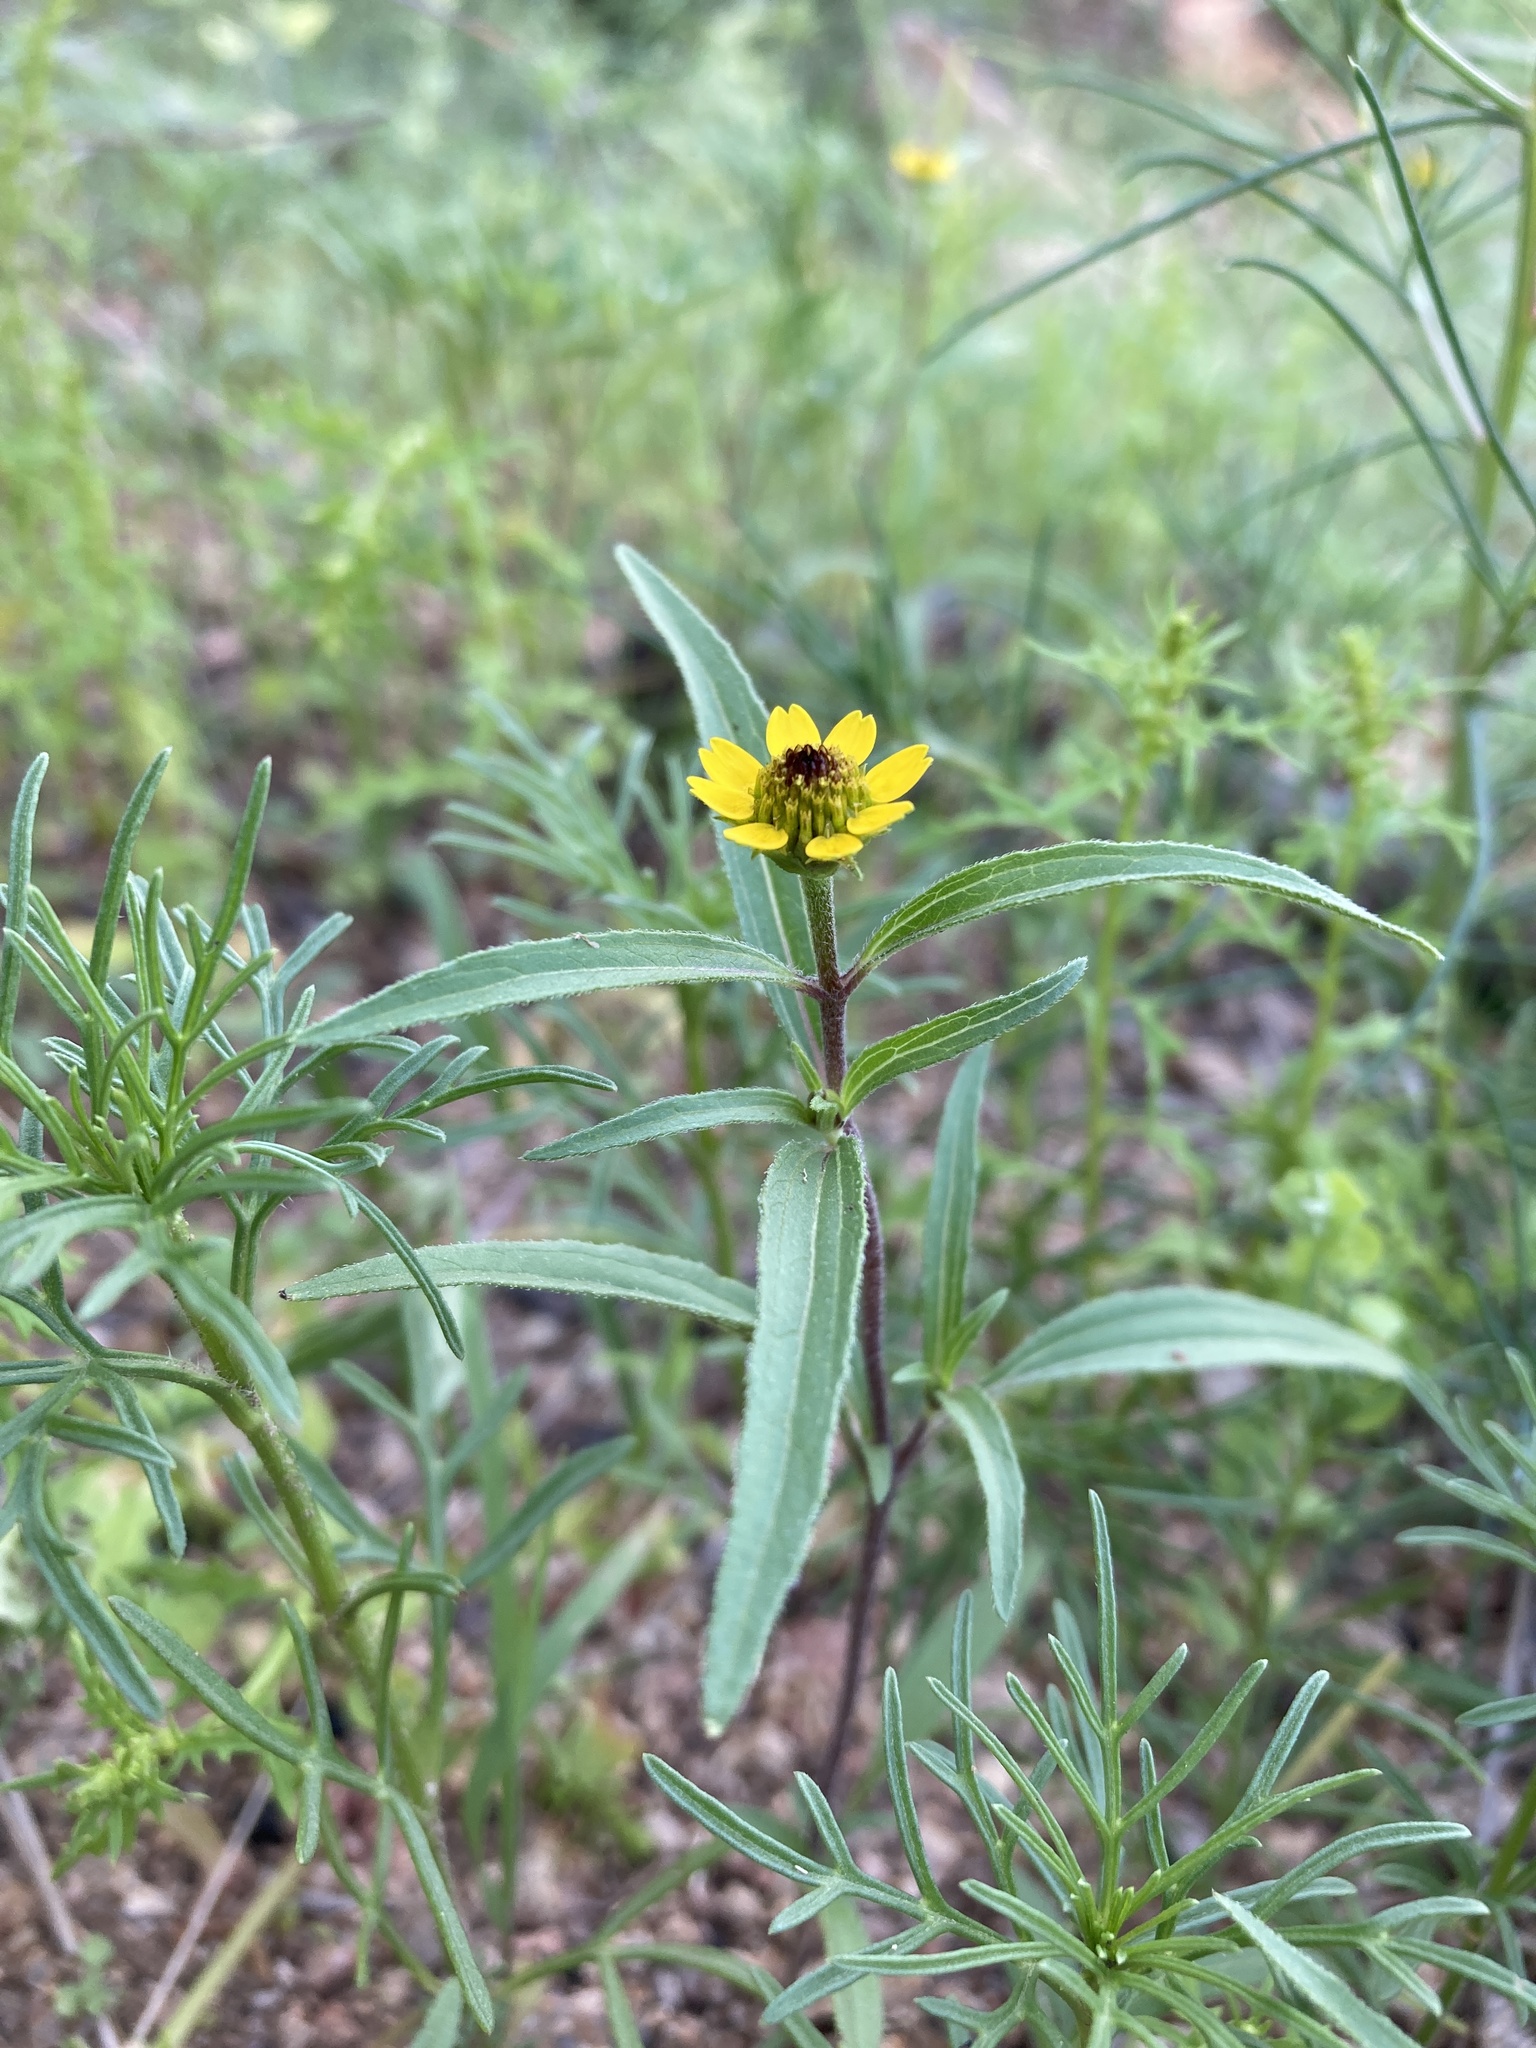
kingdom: Plantae
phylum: Tracheophyta
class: Magnoliopsida
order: Asterales
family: Asteraceae
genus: Sanvitalia
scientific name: Sanvitalia abertii
